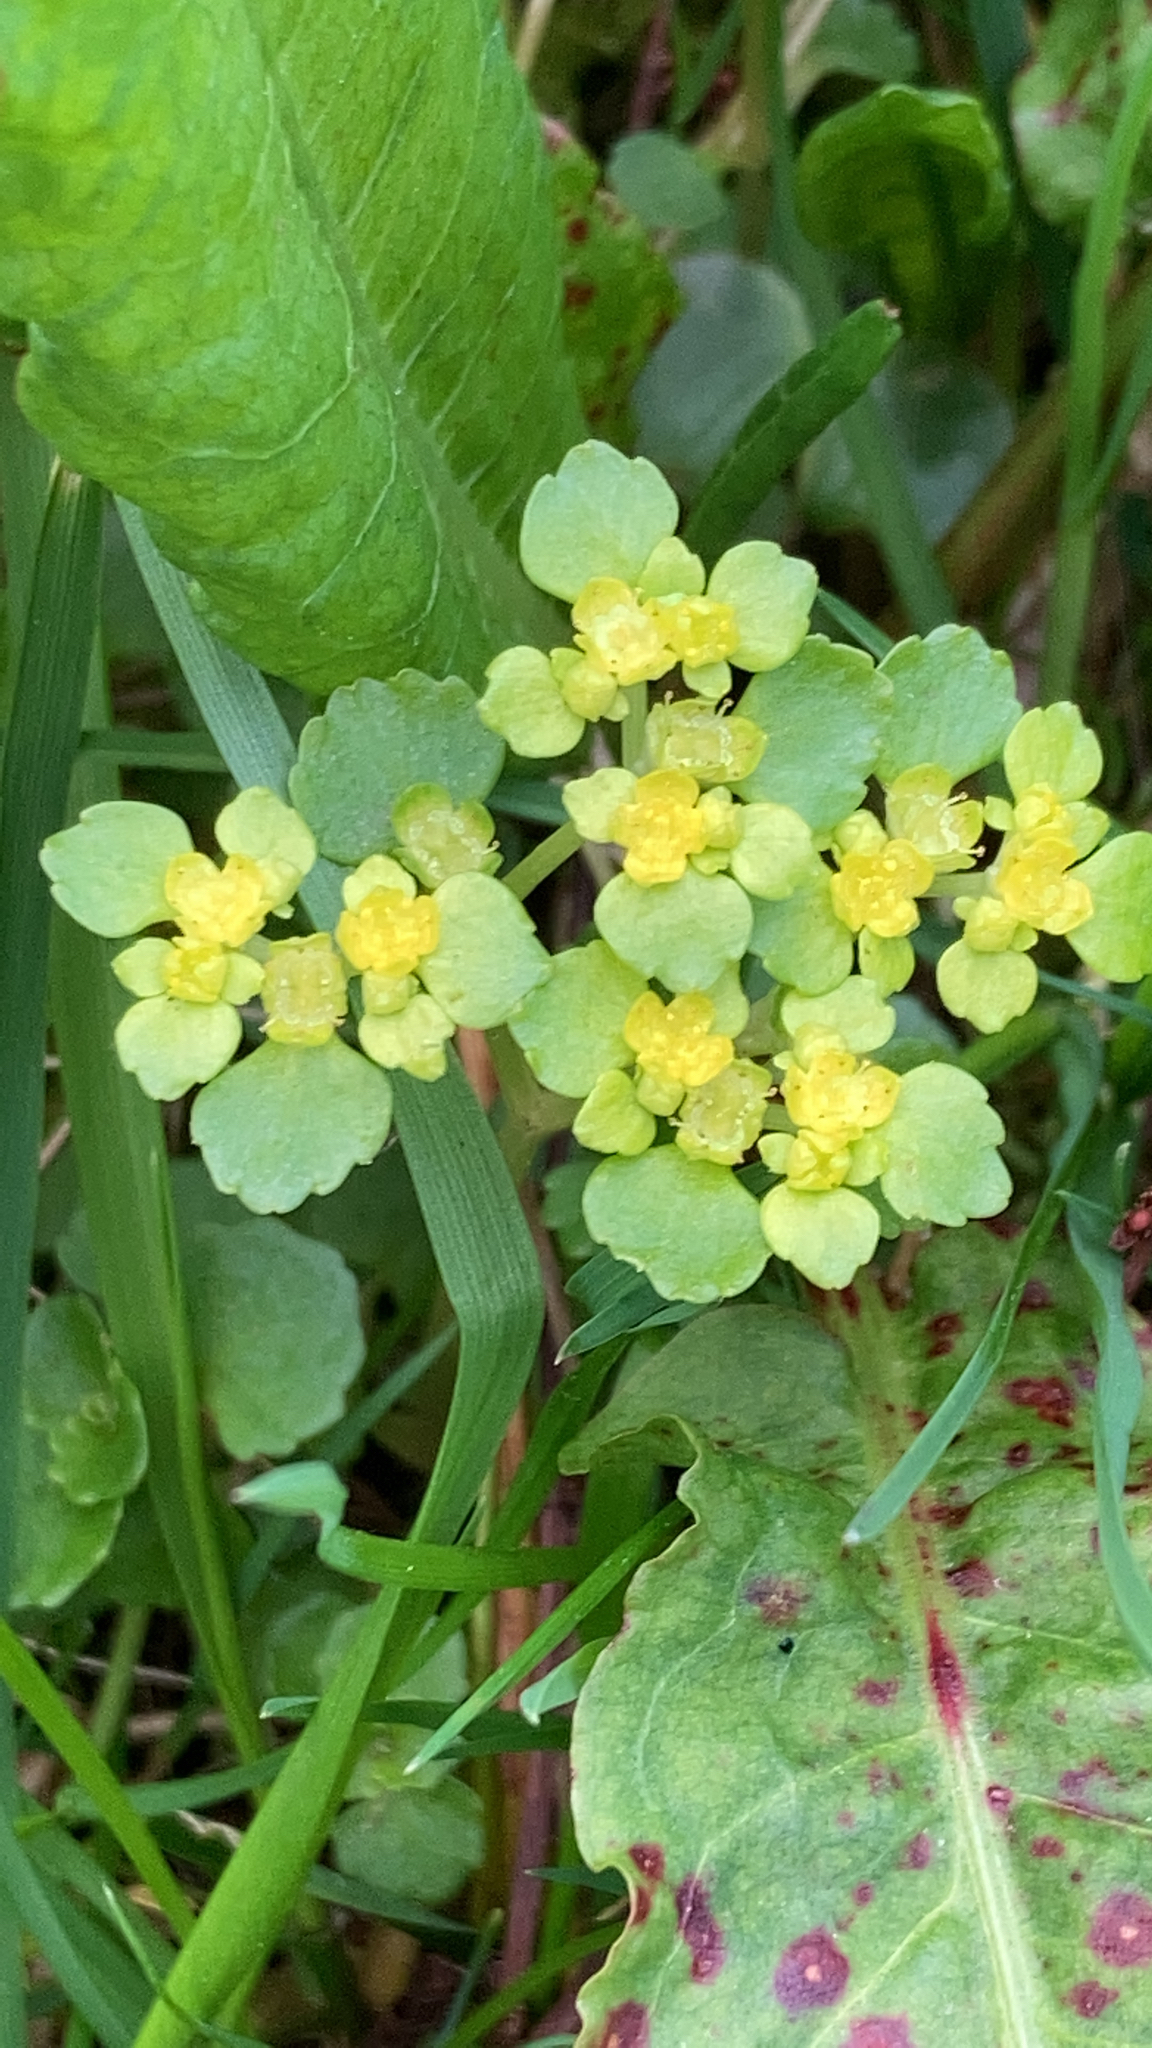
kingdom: Plantae
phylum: Tracheophyta
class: Magnoliopsida
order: Saxifragales
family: Saxifragaceae
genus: Chrysosplenium
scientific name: Chrysosplenium oppositifolium
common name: Opposite-leaved golden-saxifrage
